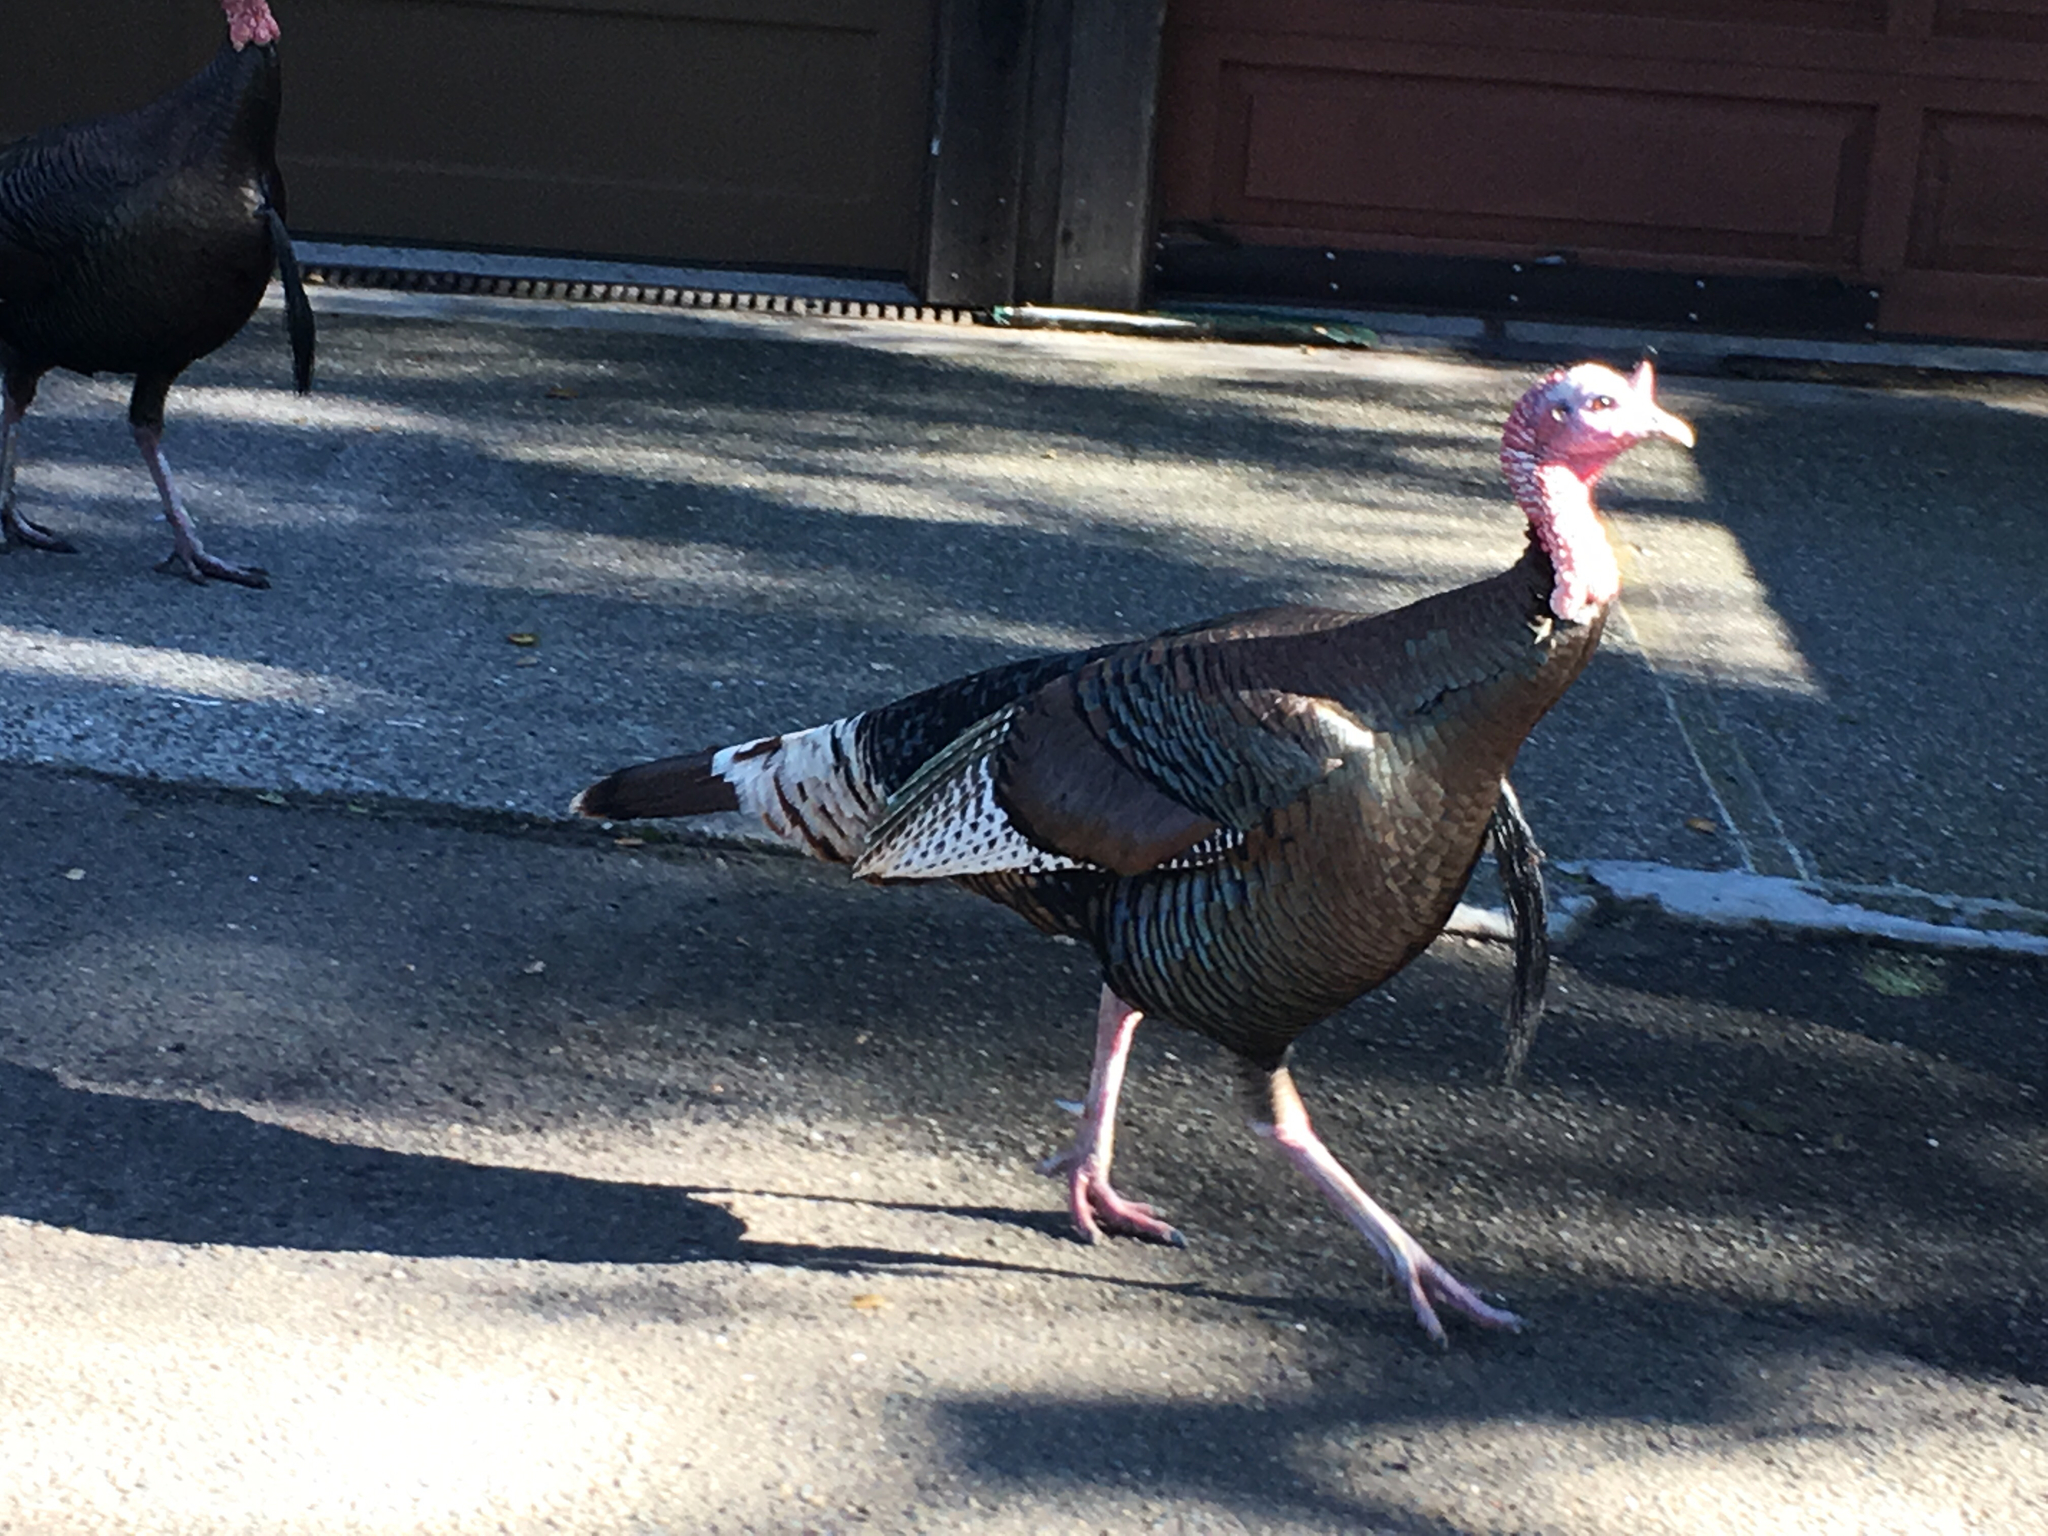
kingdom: Animalia
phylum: Chordata
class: Aves
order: Galliformes
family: Phasianidae
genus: Meleagris
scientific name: Meleagris gallopavo
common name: Wild turkey
